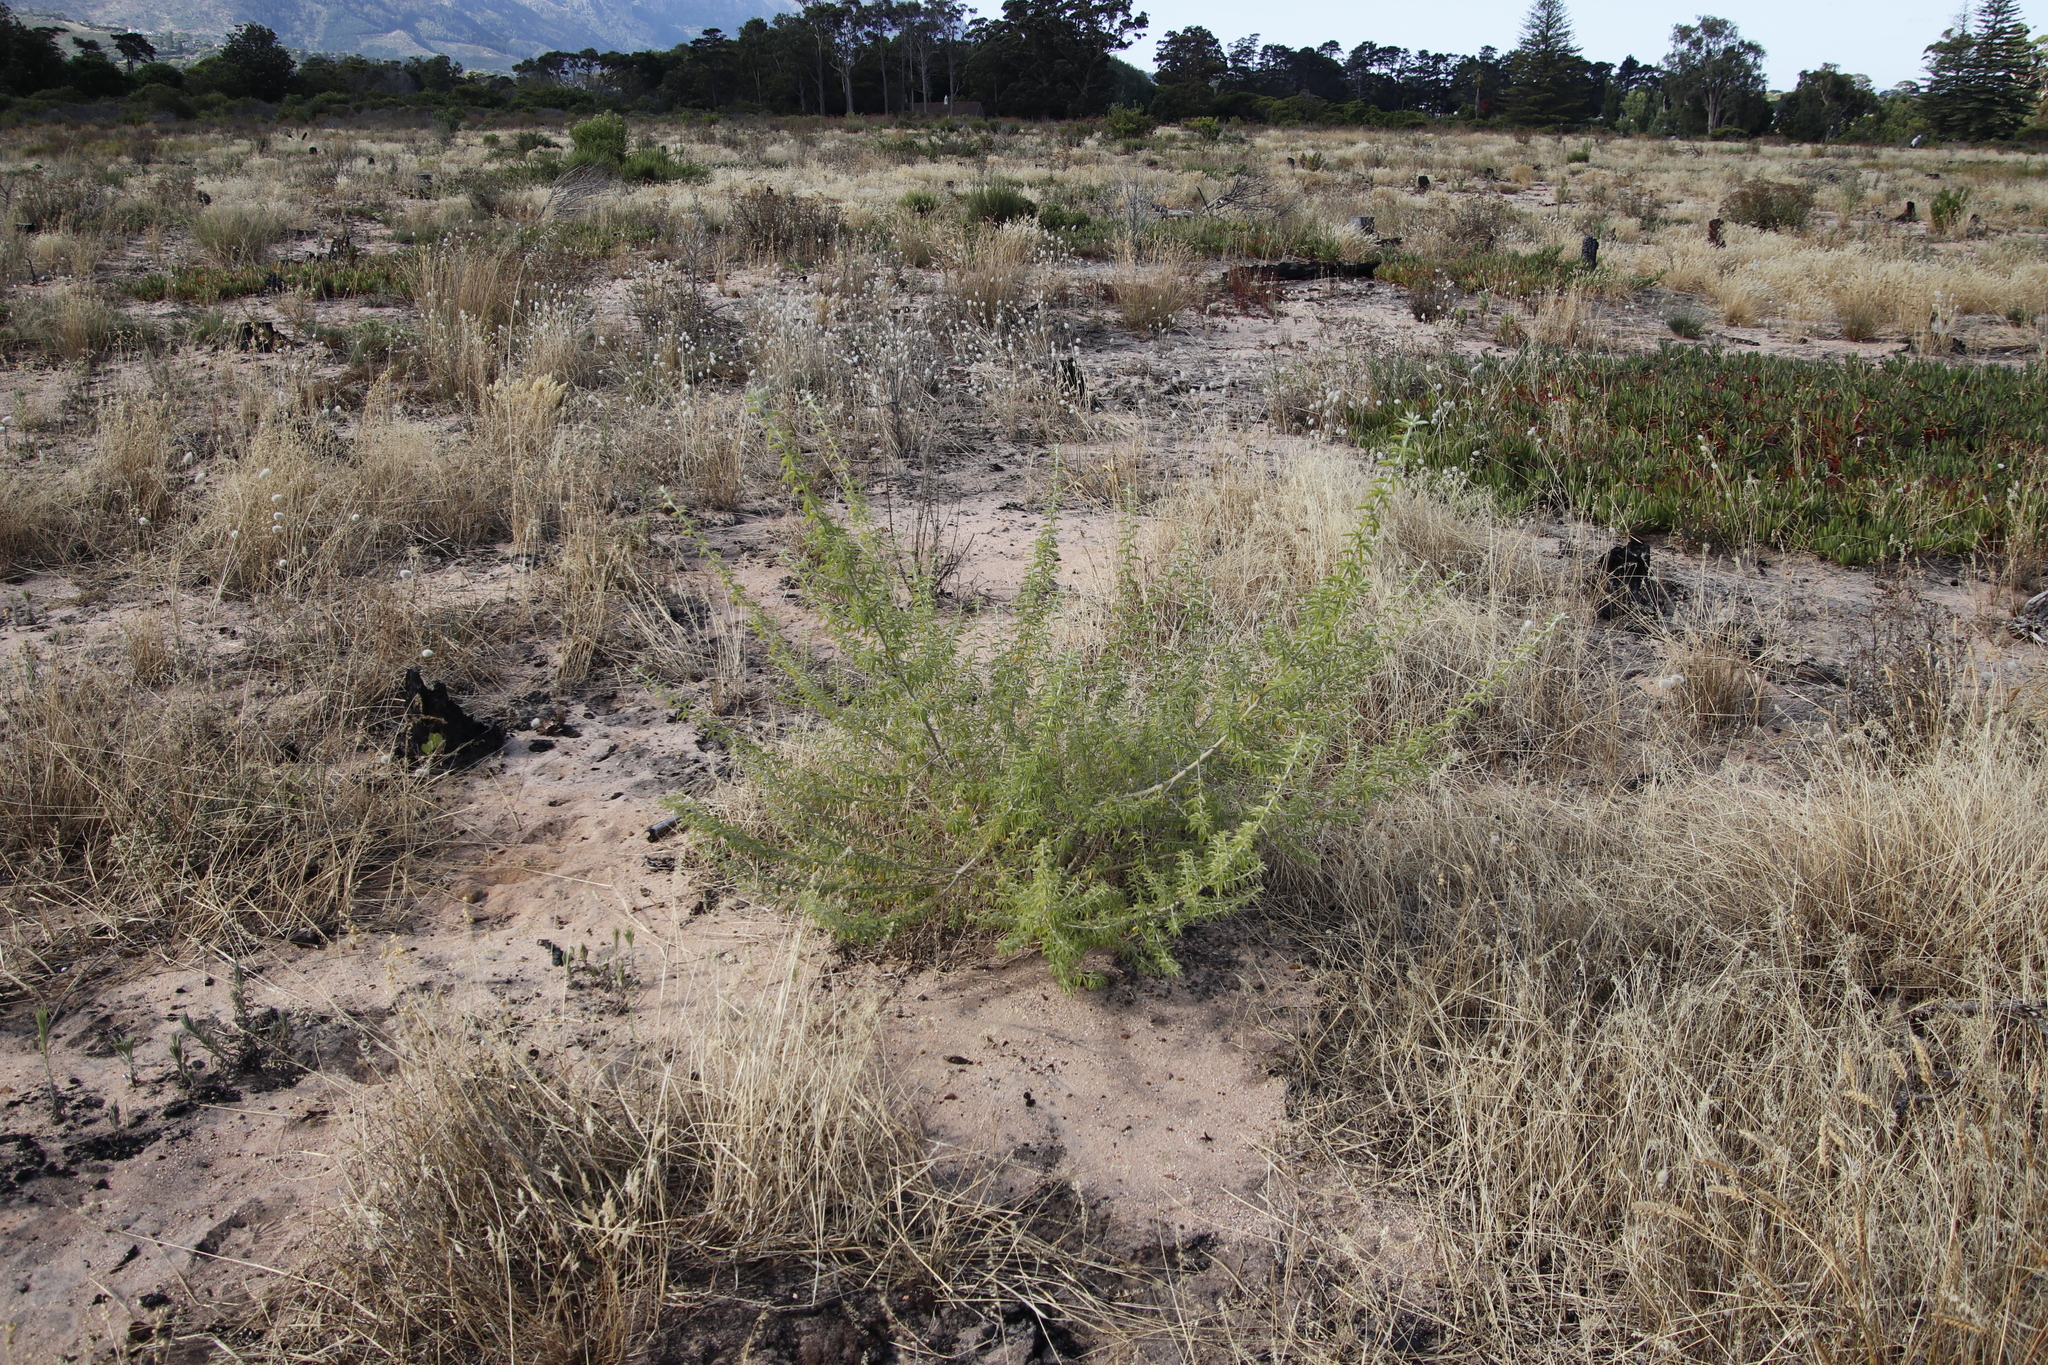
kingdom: Plantae
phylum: Tracheophyta
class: Magnoliopsida
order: Fabales
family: Fabaceae
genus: Chamaecytisus
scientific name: Chamaecytisus prolifer
